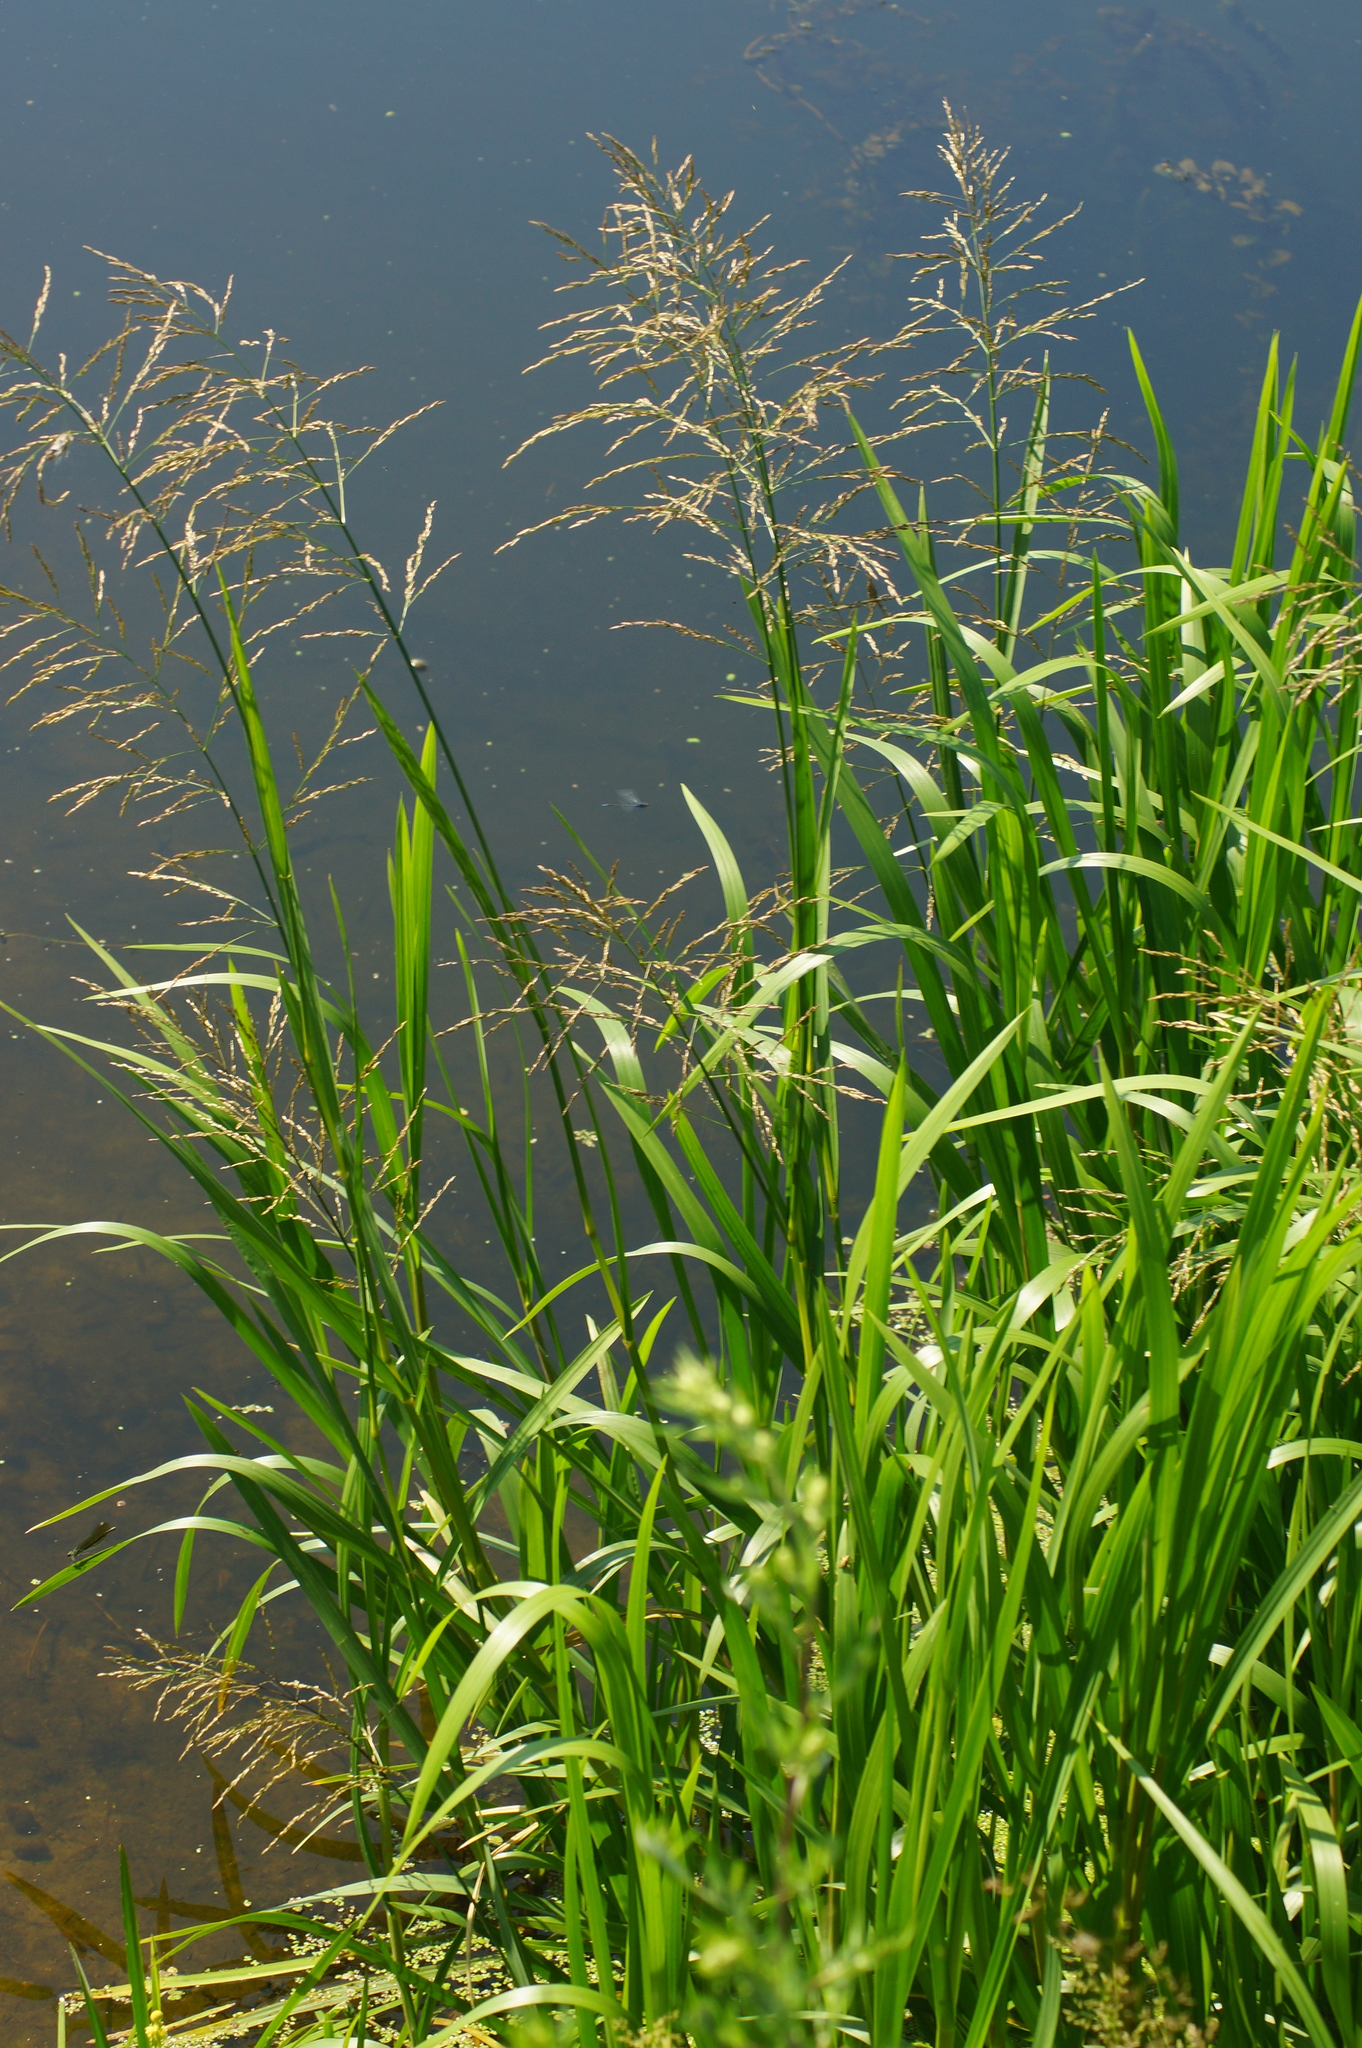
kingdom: Plantae
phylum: Tracheophyta
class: Liliopsida
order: Poales
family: Poaceae
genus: Glyceria
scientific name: Glyceria maxima
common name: Reed mannagrass
